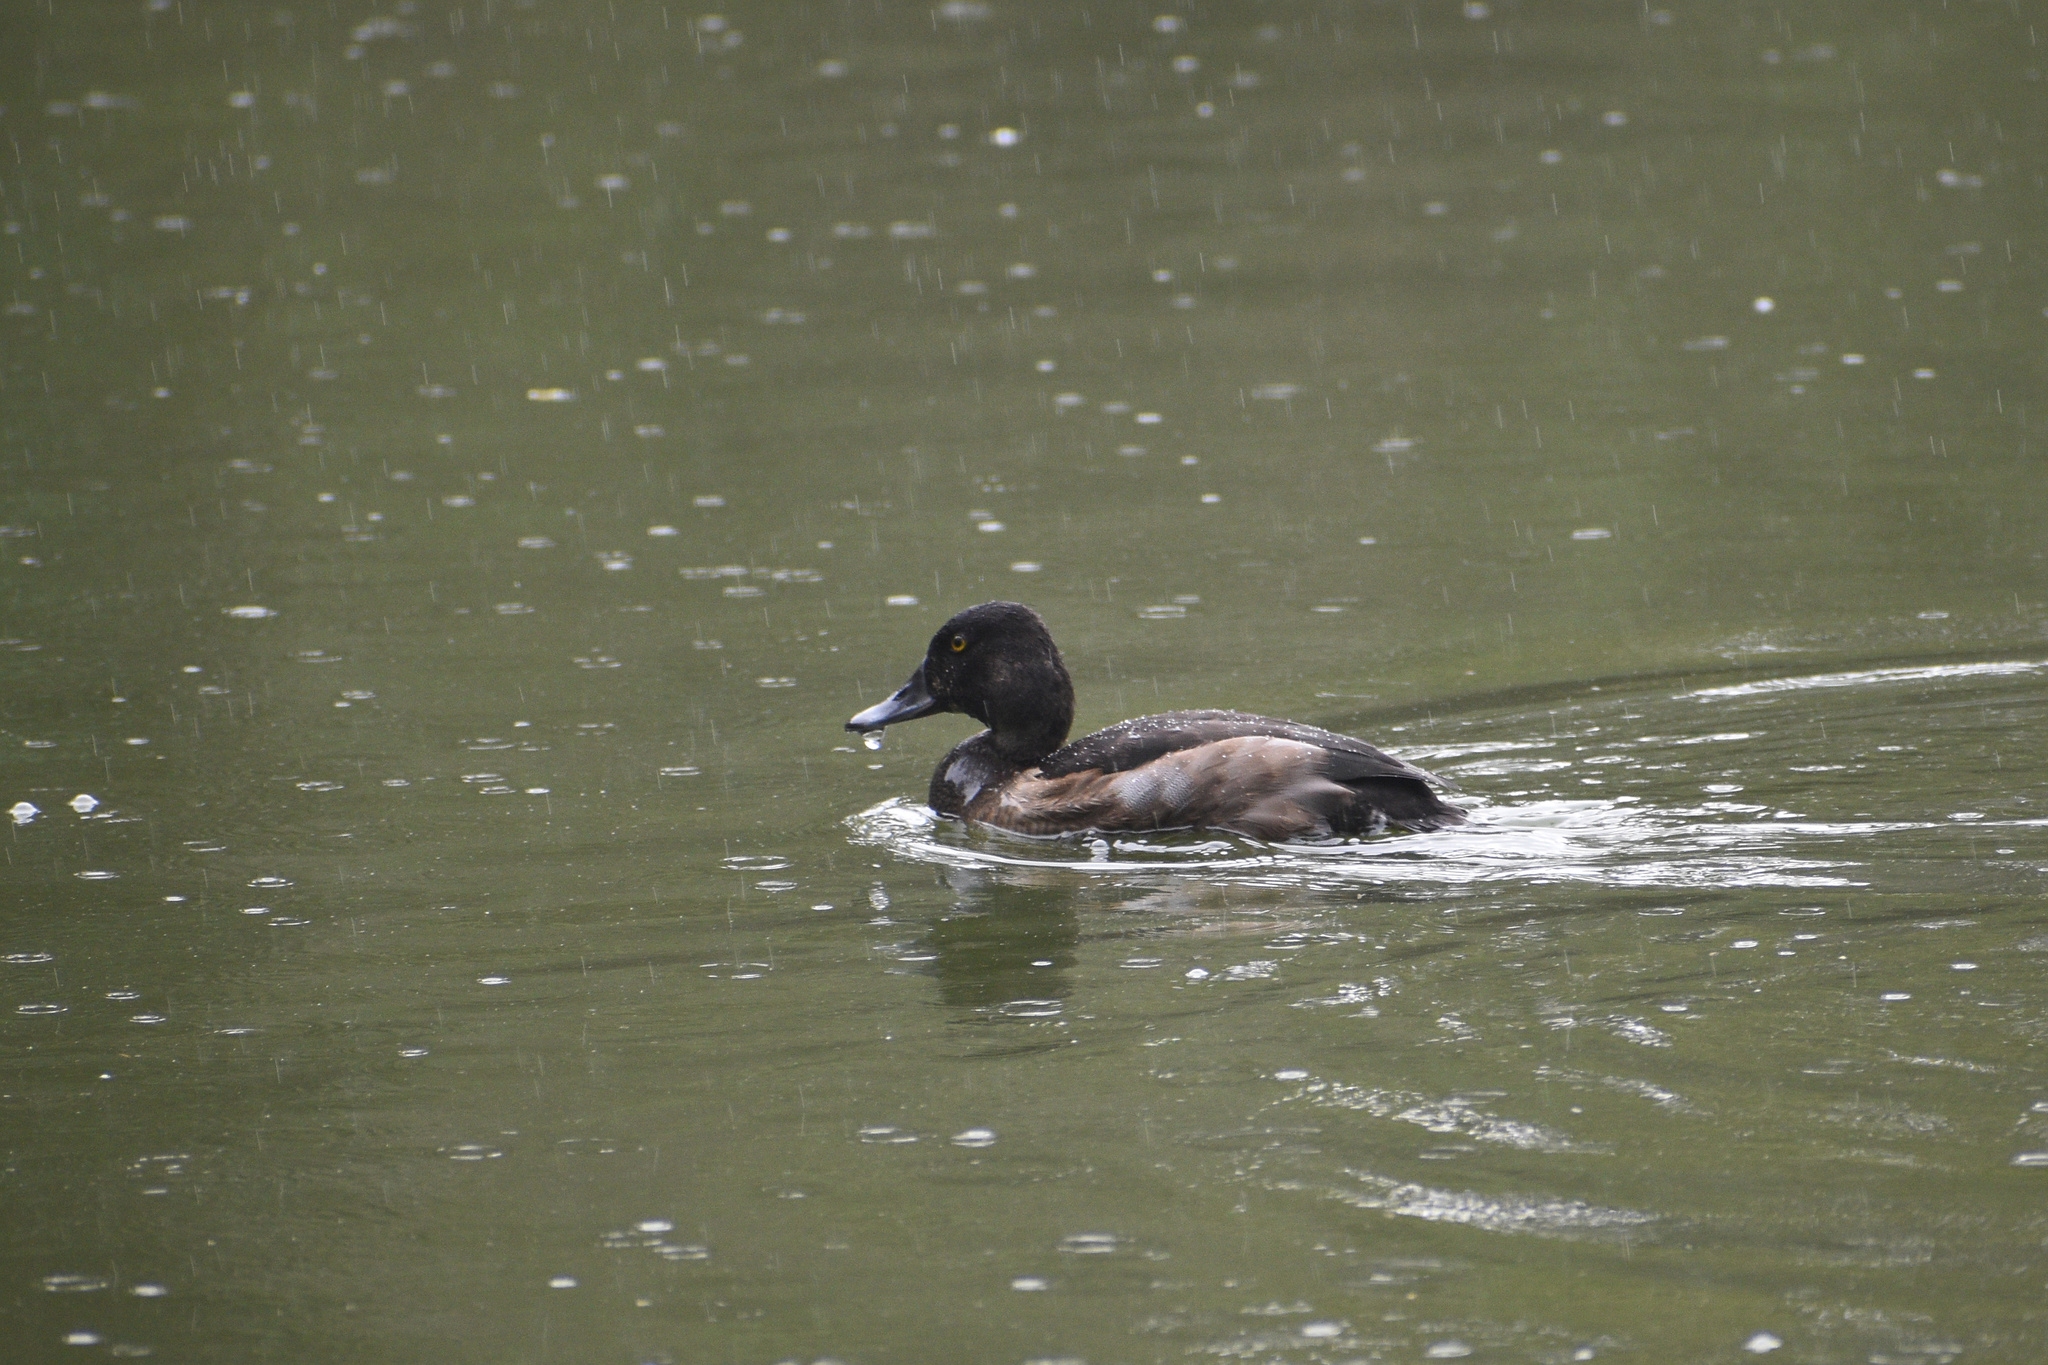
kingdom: Animalia
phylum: Chordata
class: Aves
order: Anseriformes
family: Anatidae
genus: Aythya
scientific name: Aythya
